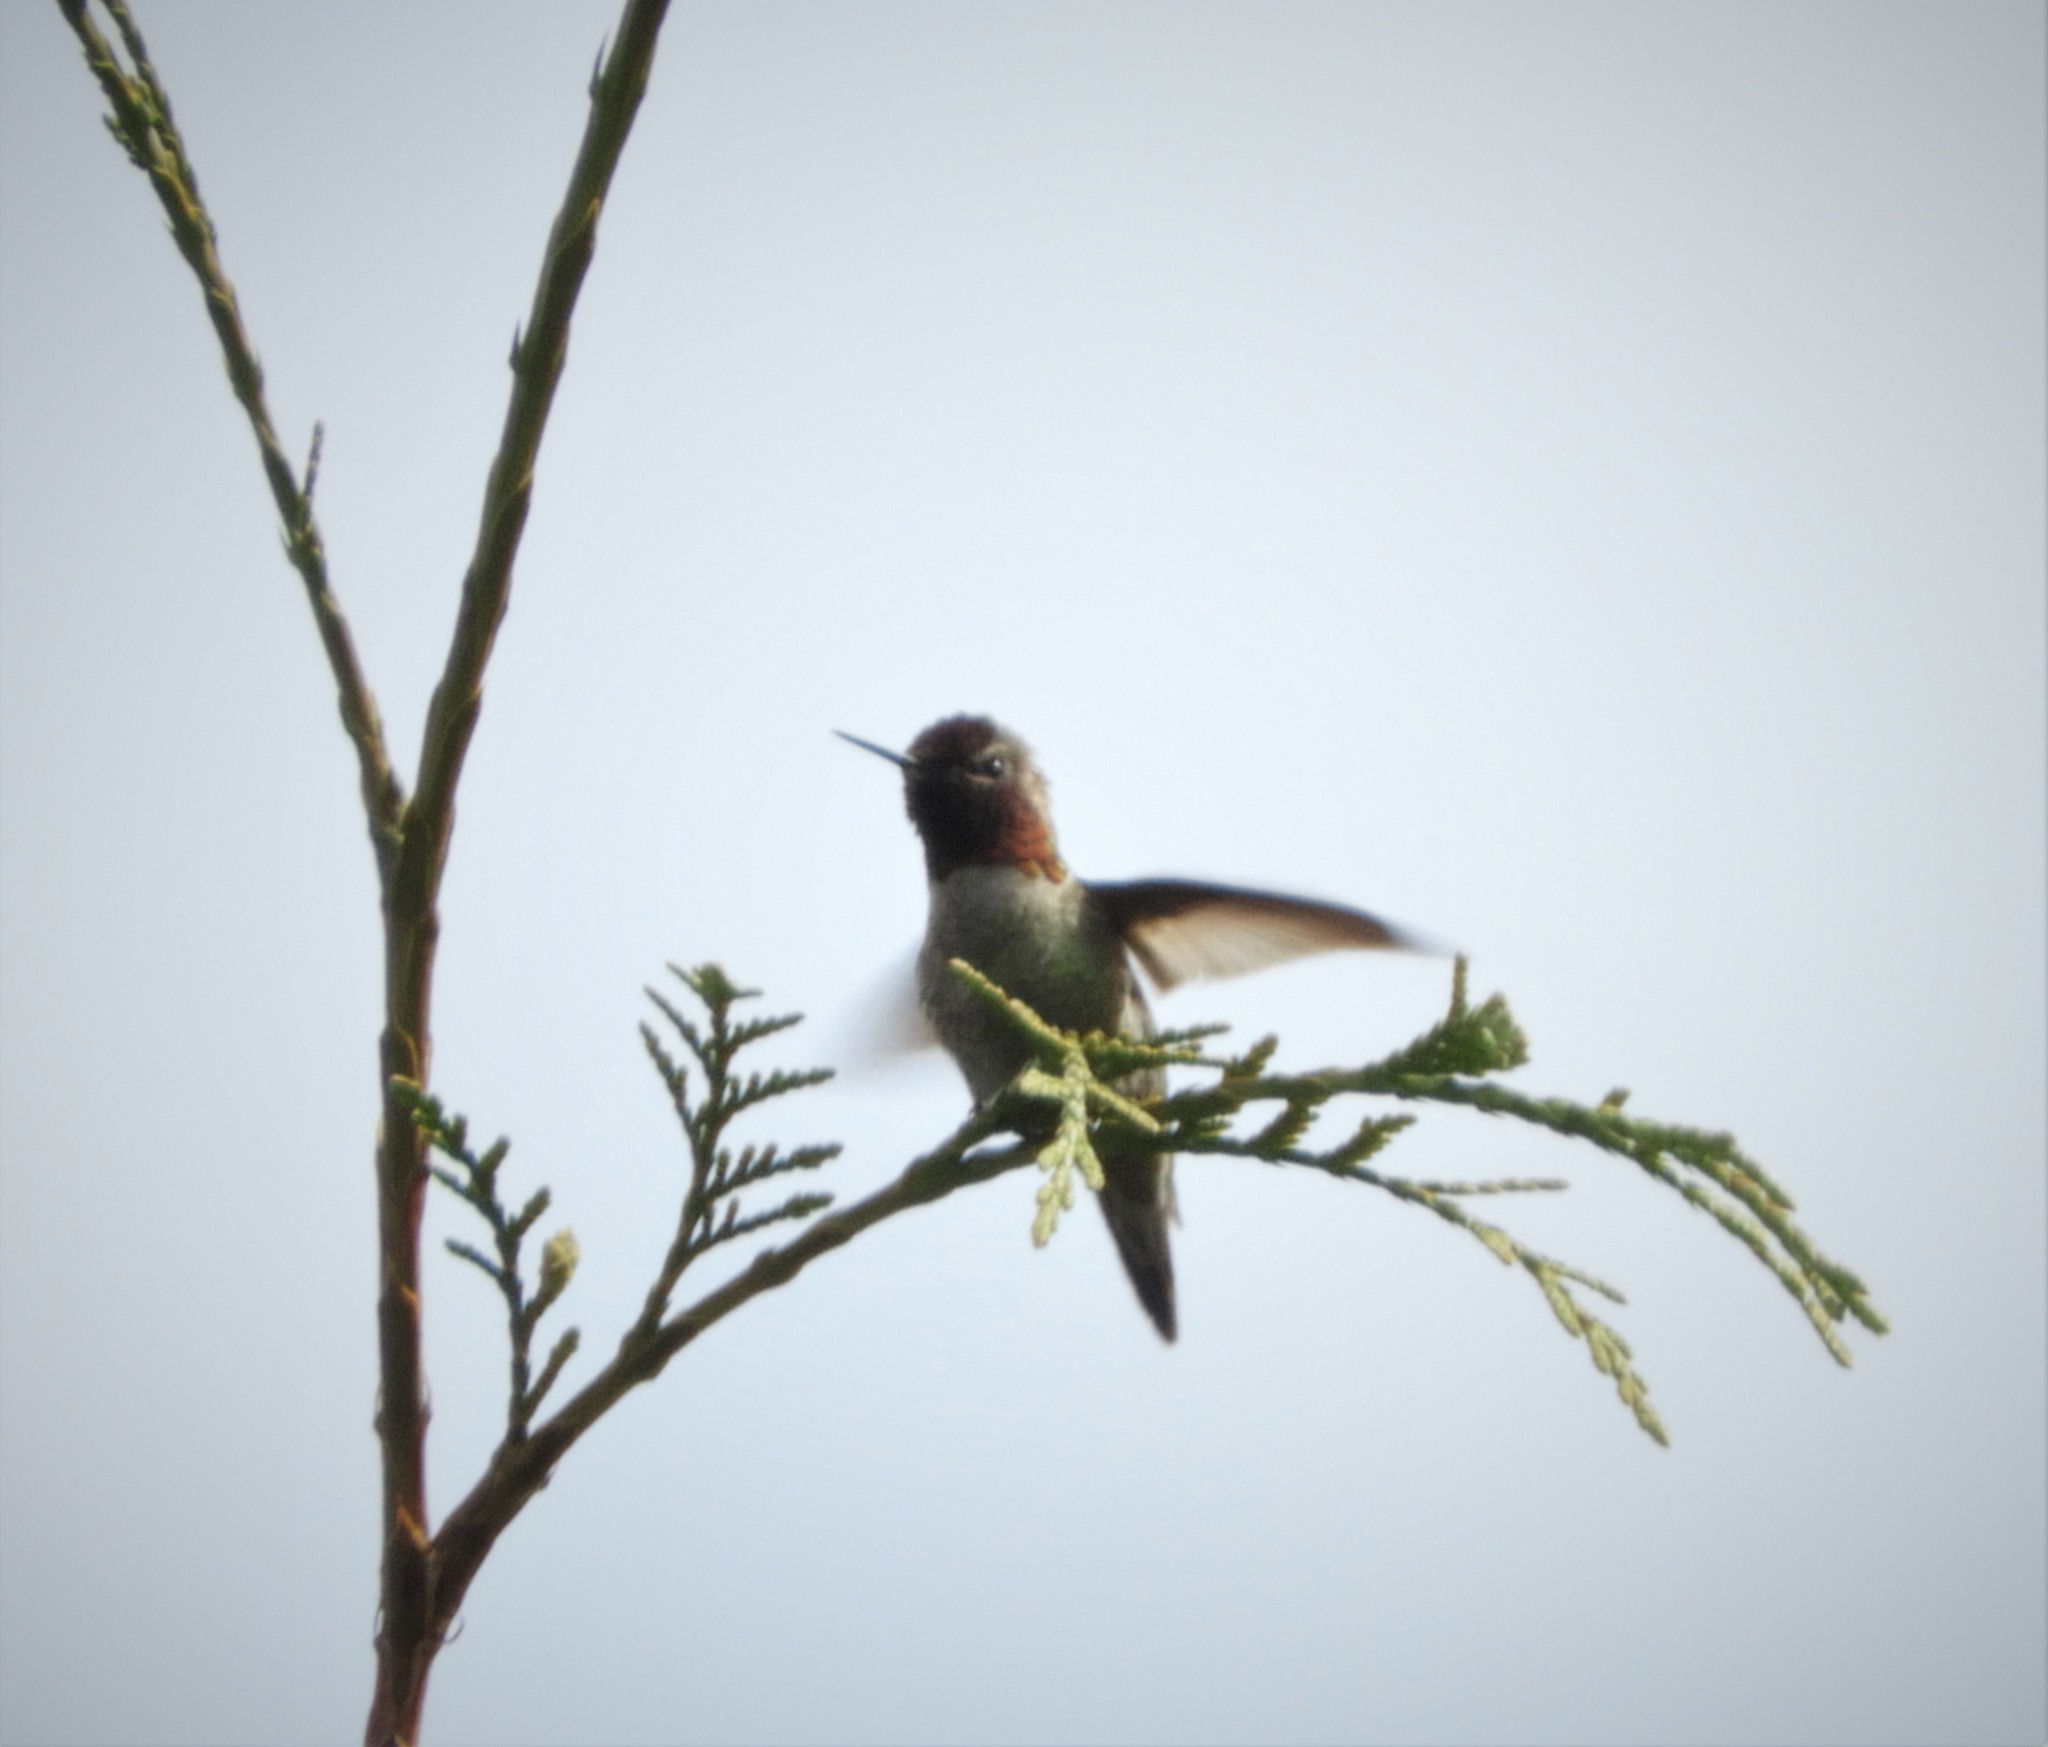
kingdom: Animalia
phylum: Chordata
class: Aves
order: Apodiformes
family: Trochilidae
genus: Calypte
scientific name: Calypte anna
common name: Anna's hummingbird
